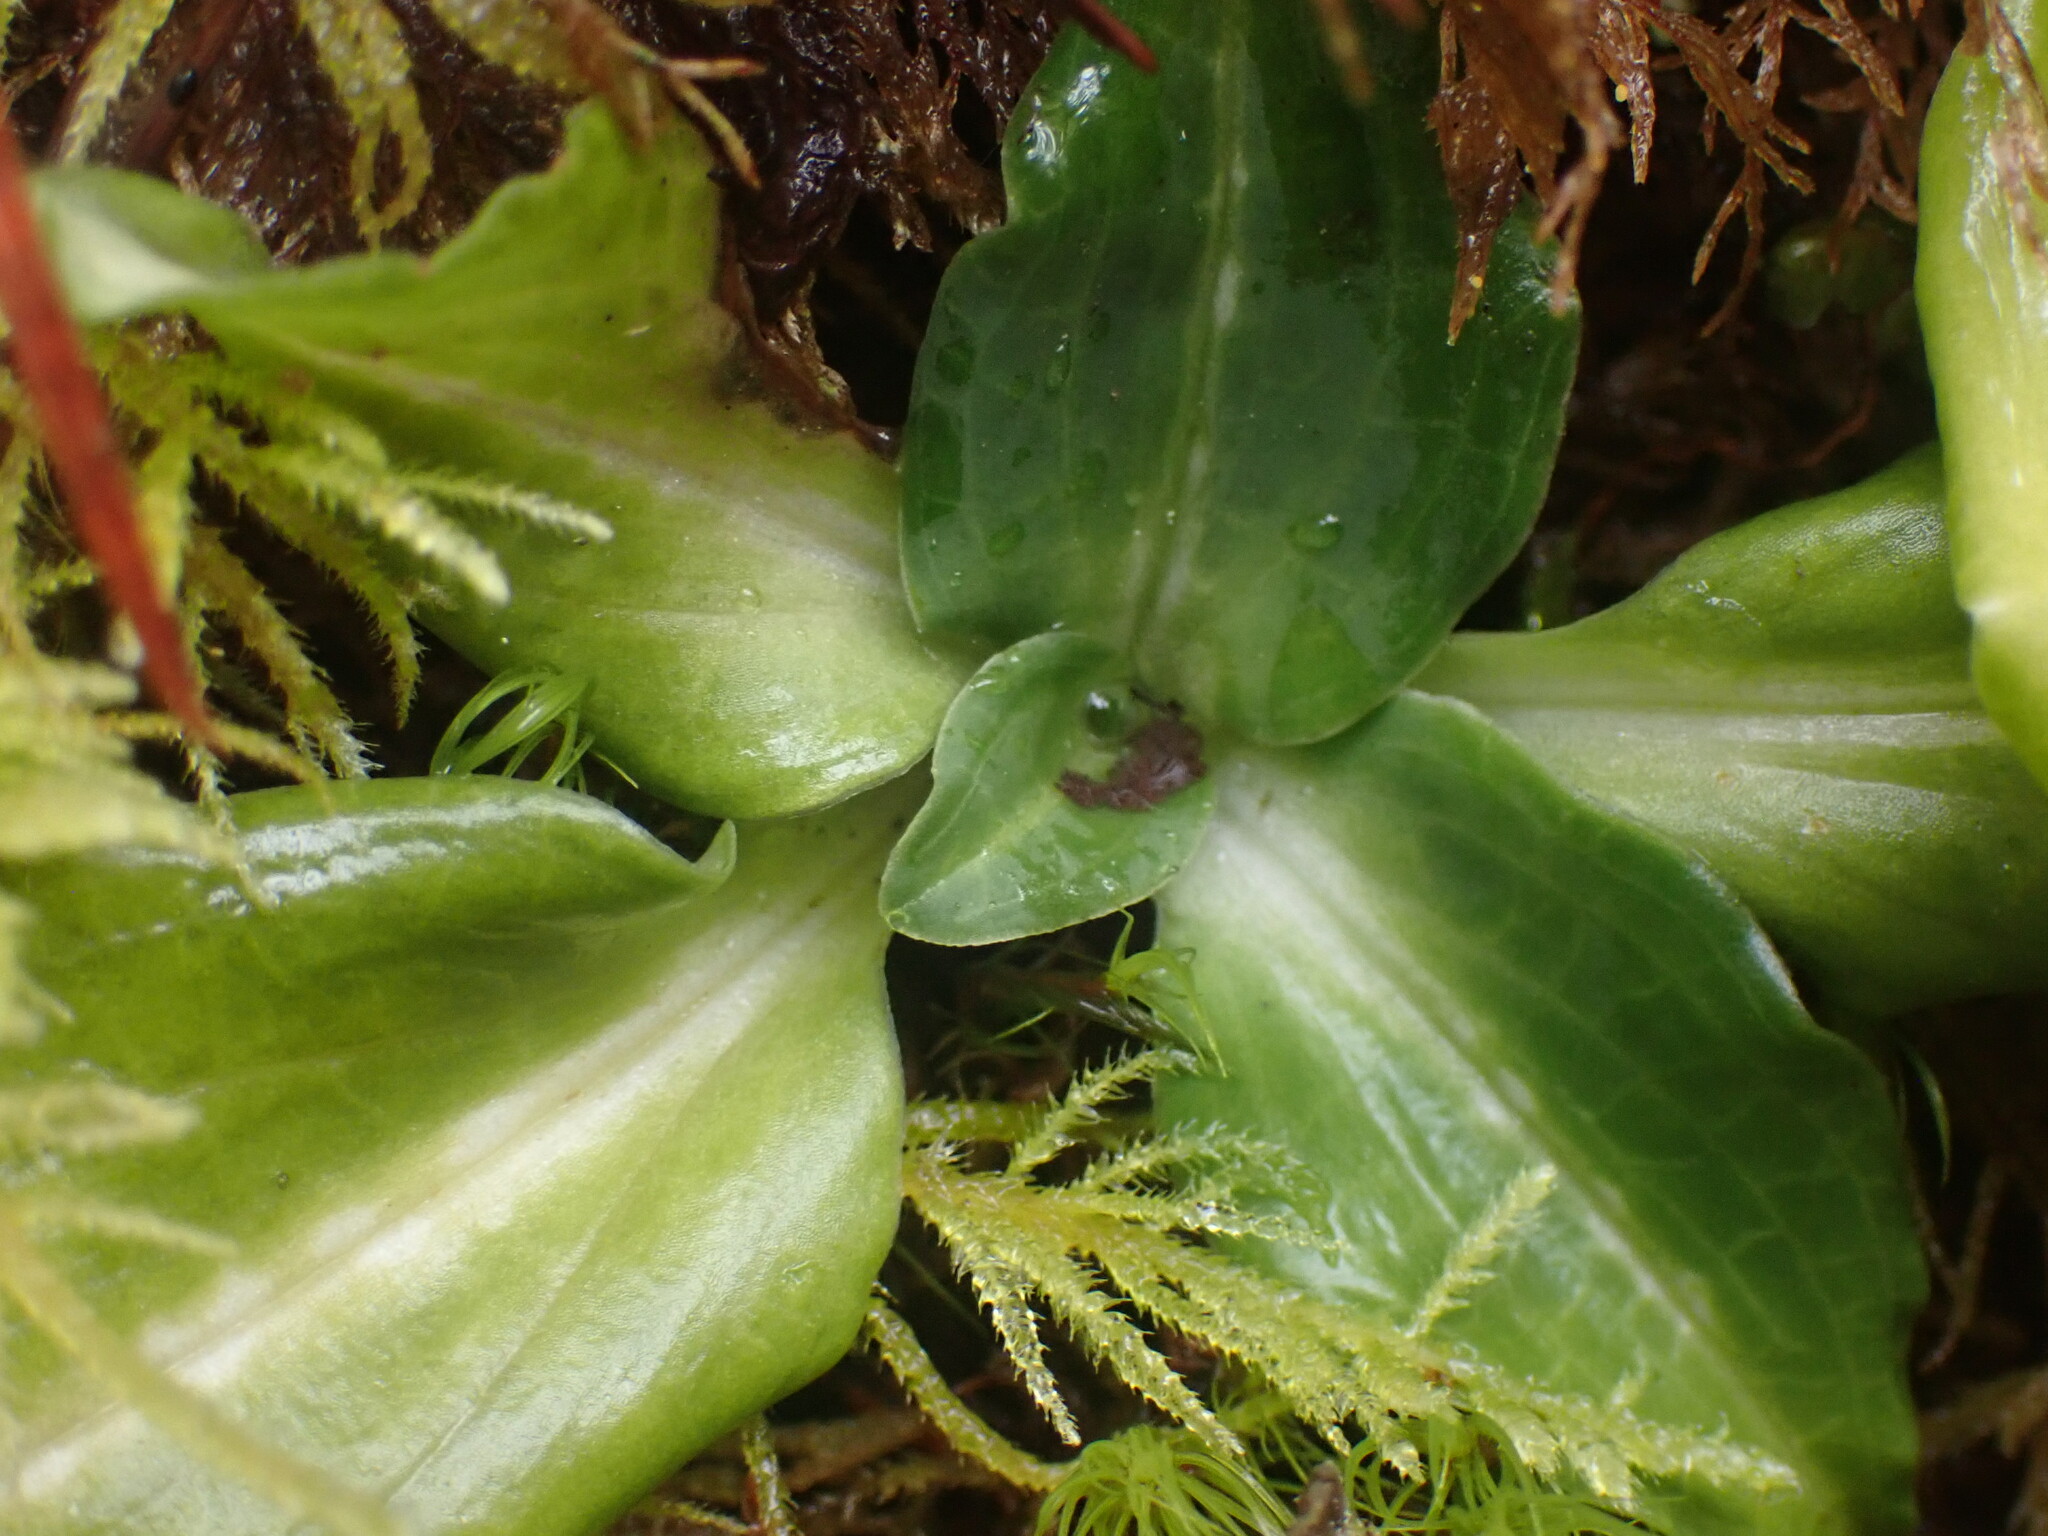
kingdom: Plantae
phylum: Tracheophyta
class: Liliopsida
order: Asparagales
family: Orchidaceae
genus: Goodyera
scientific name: Goodyera oblongifolia
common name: Giant rattlesnake-plantain
